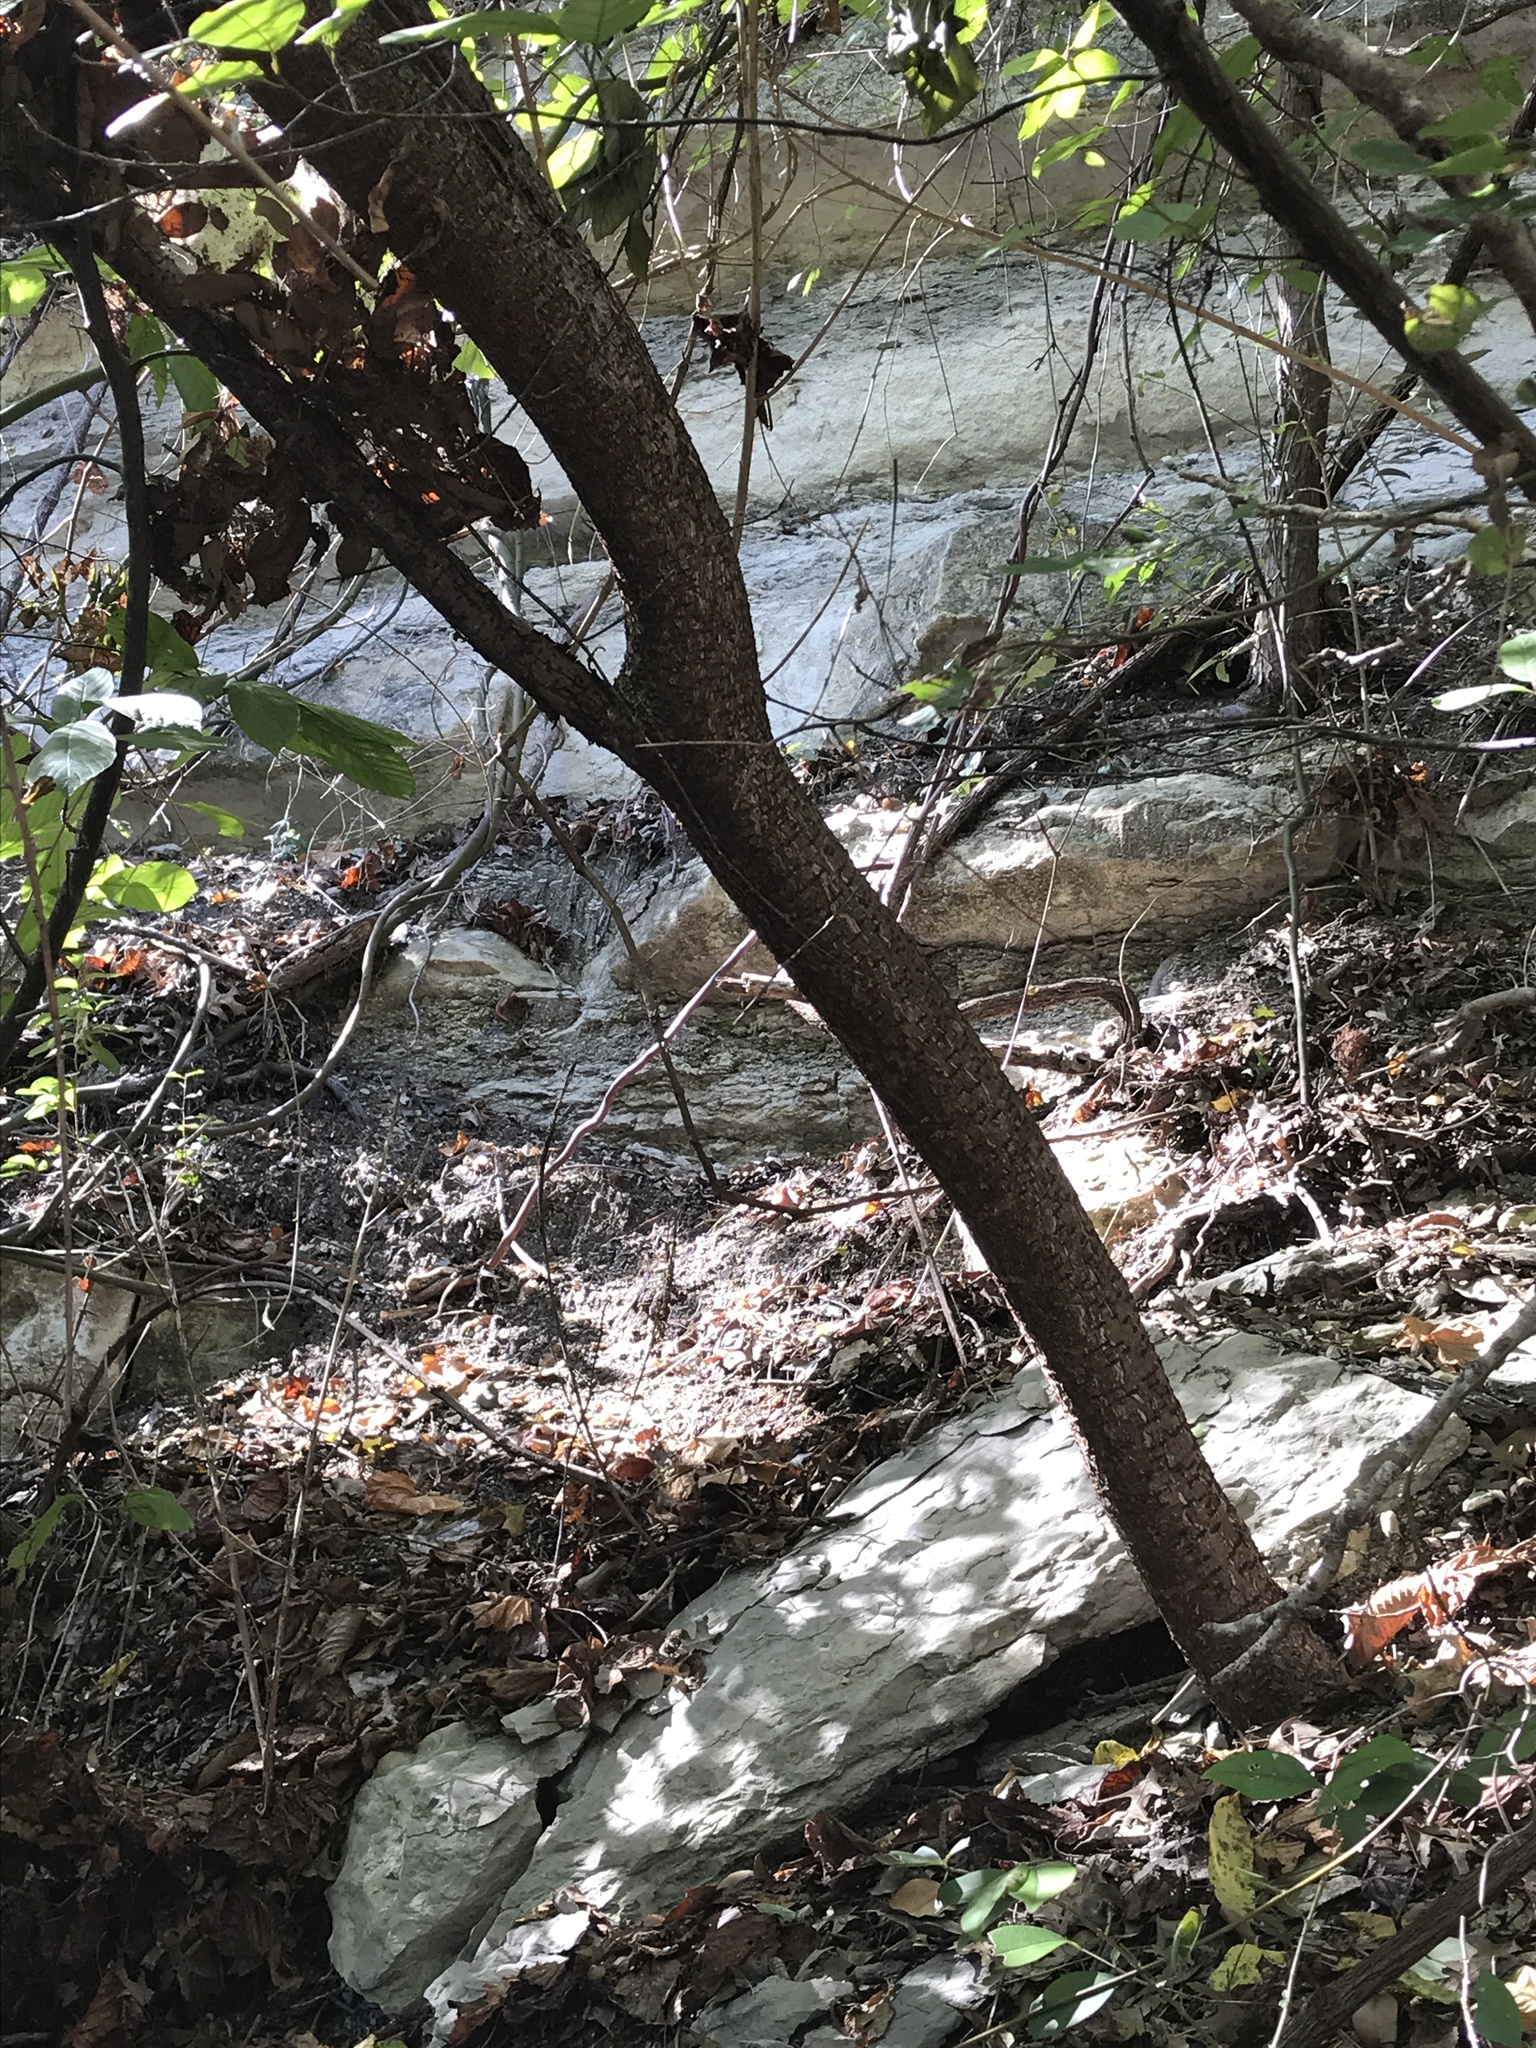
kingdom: Plantae
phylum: Tracheophyta
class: Magnoliopsida
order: Sapindales
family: Anacardiaceae
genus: Rhus
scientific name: Rhus lanceolata
